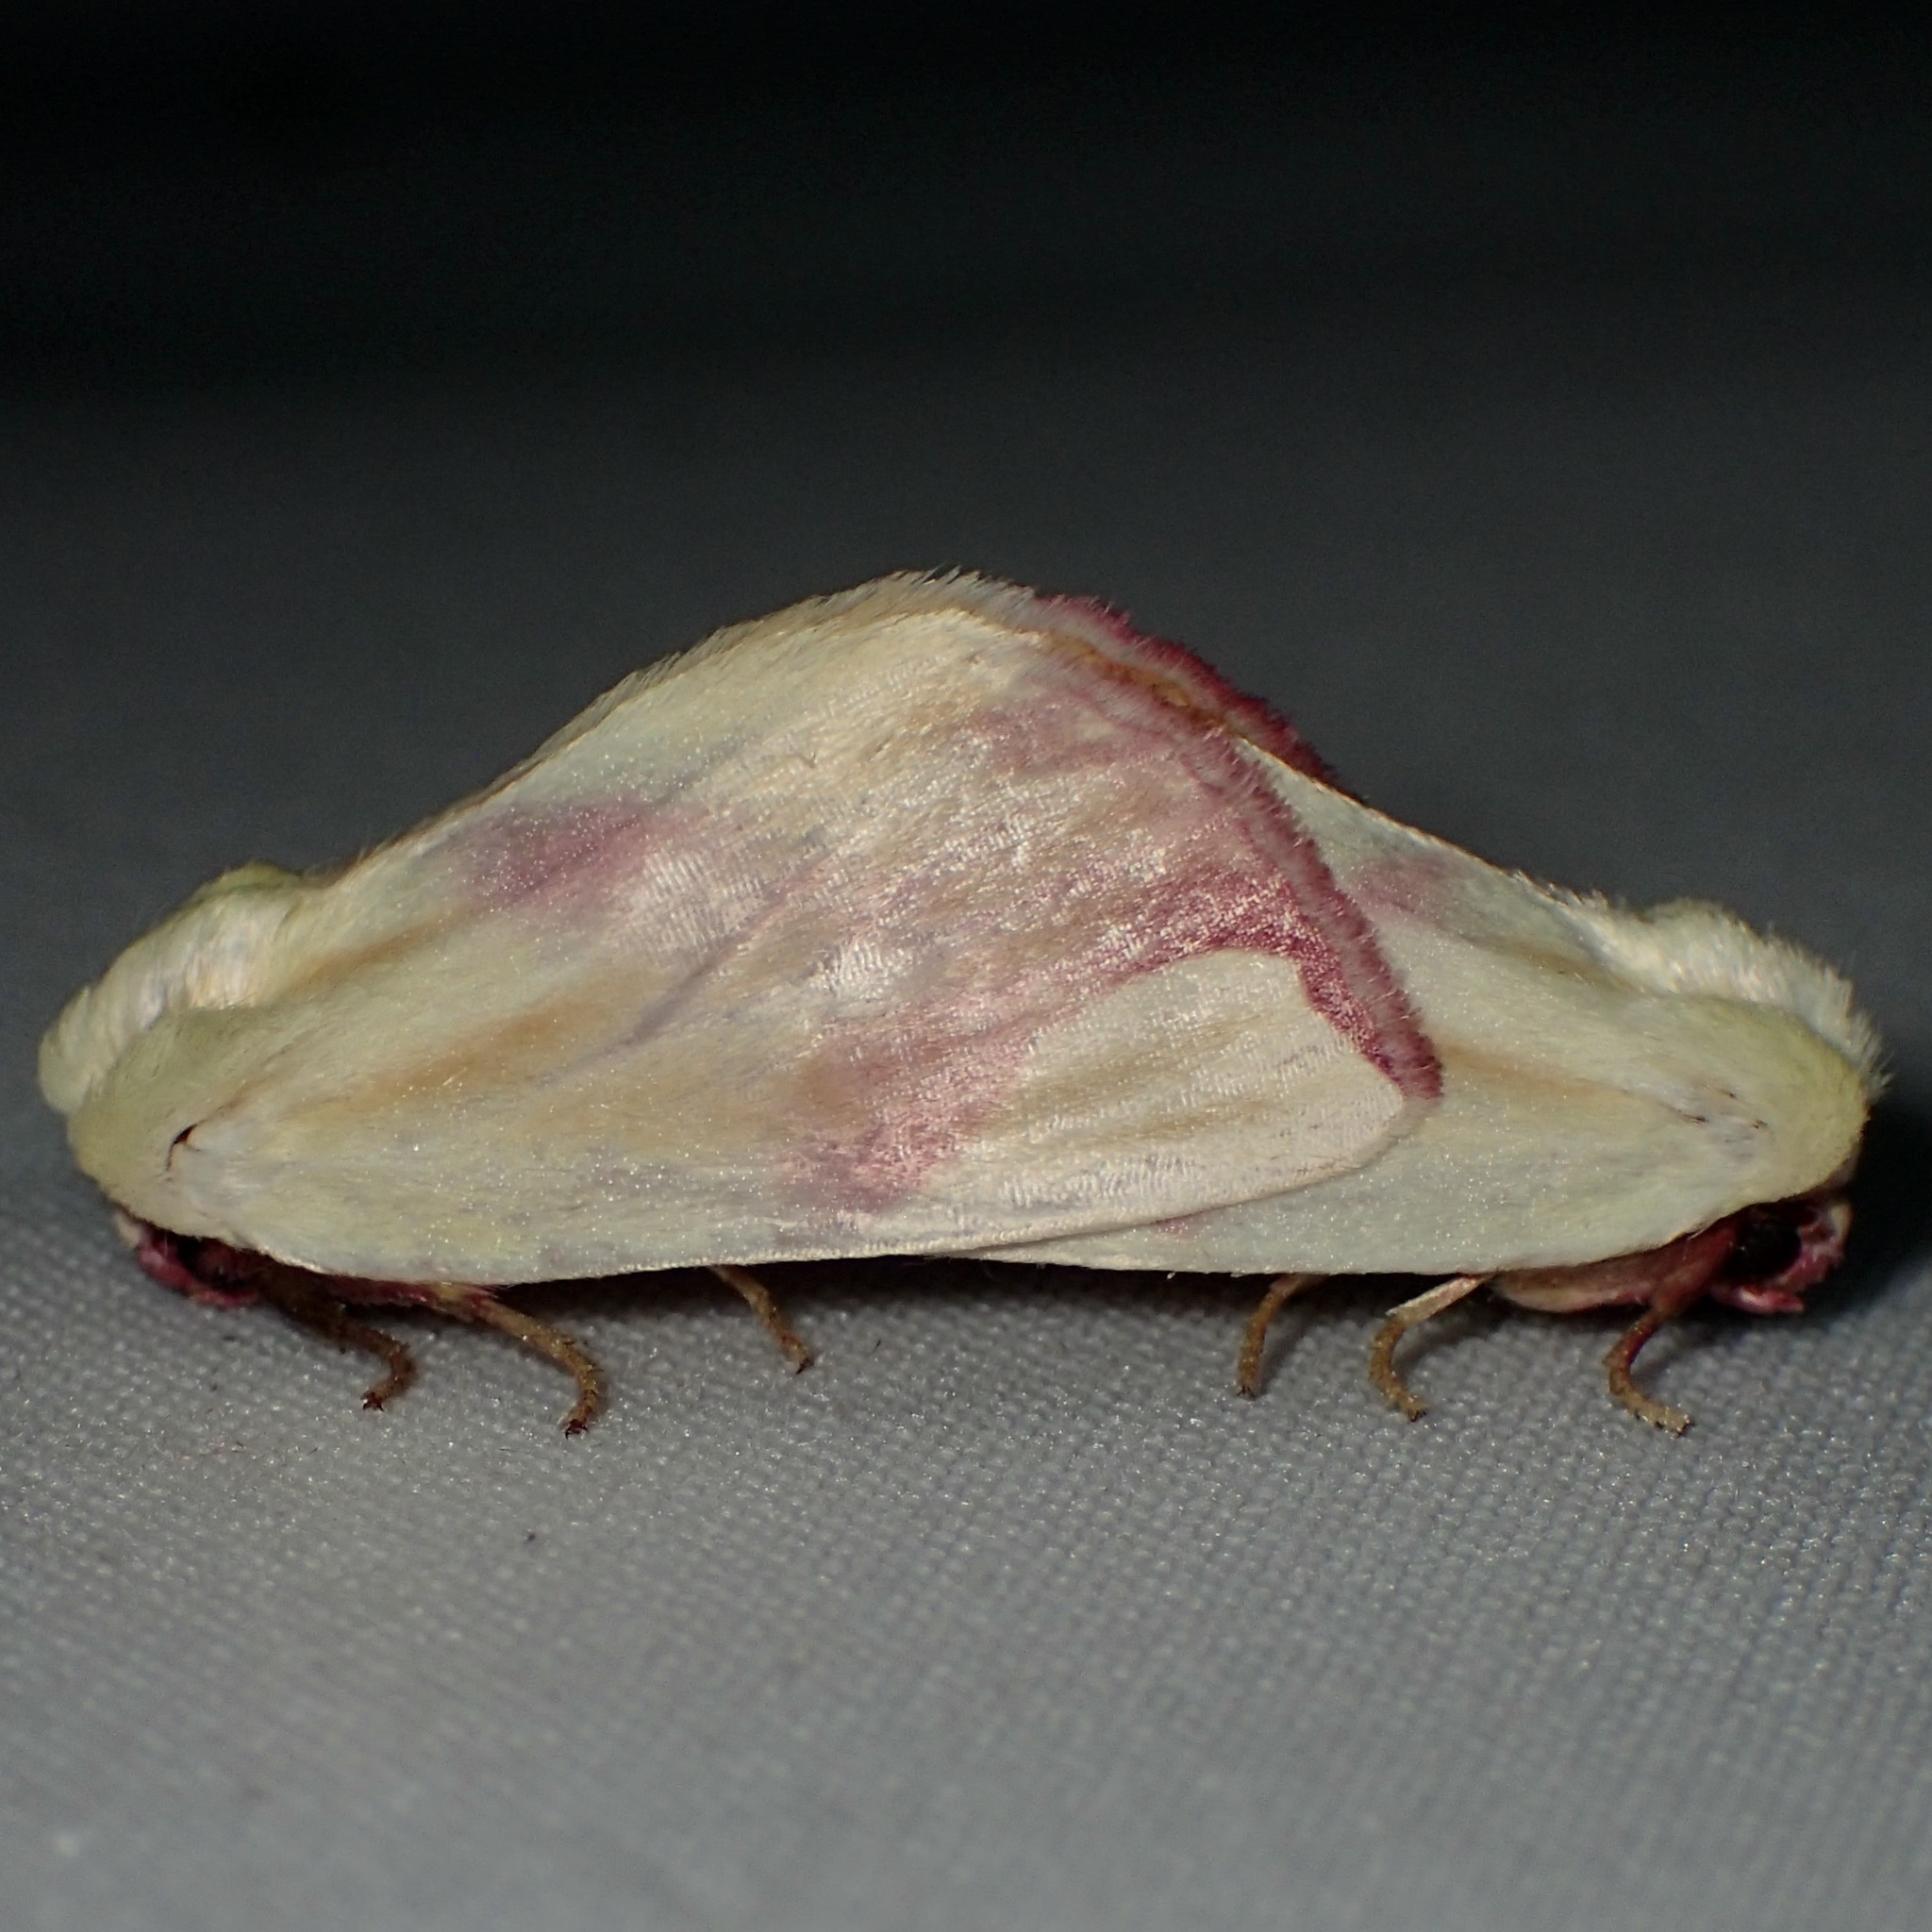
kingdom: Animalia
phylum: Arthropoda
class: Insecta
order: Lepidoptera
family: Noctuidae
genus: Thurberiphaga
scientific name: Thurberiphaga diffusa
